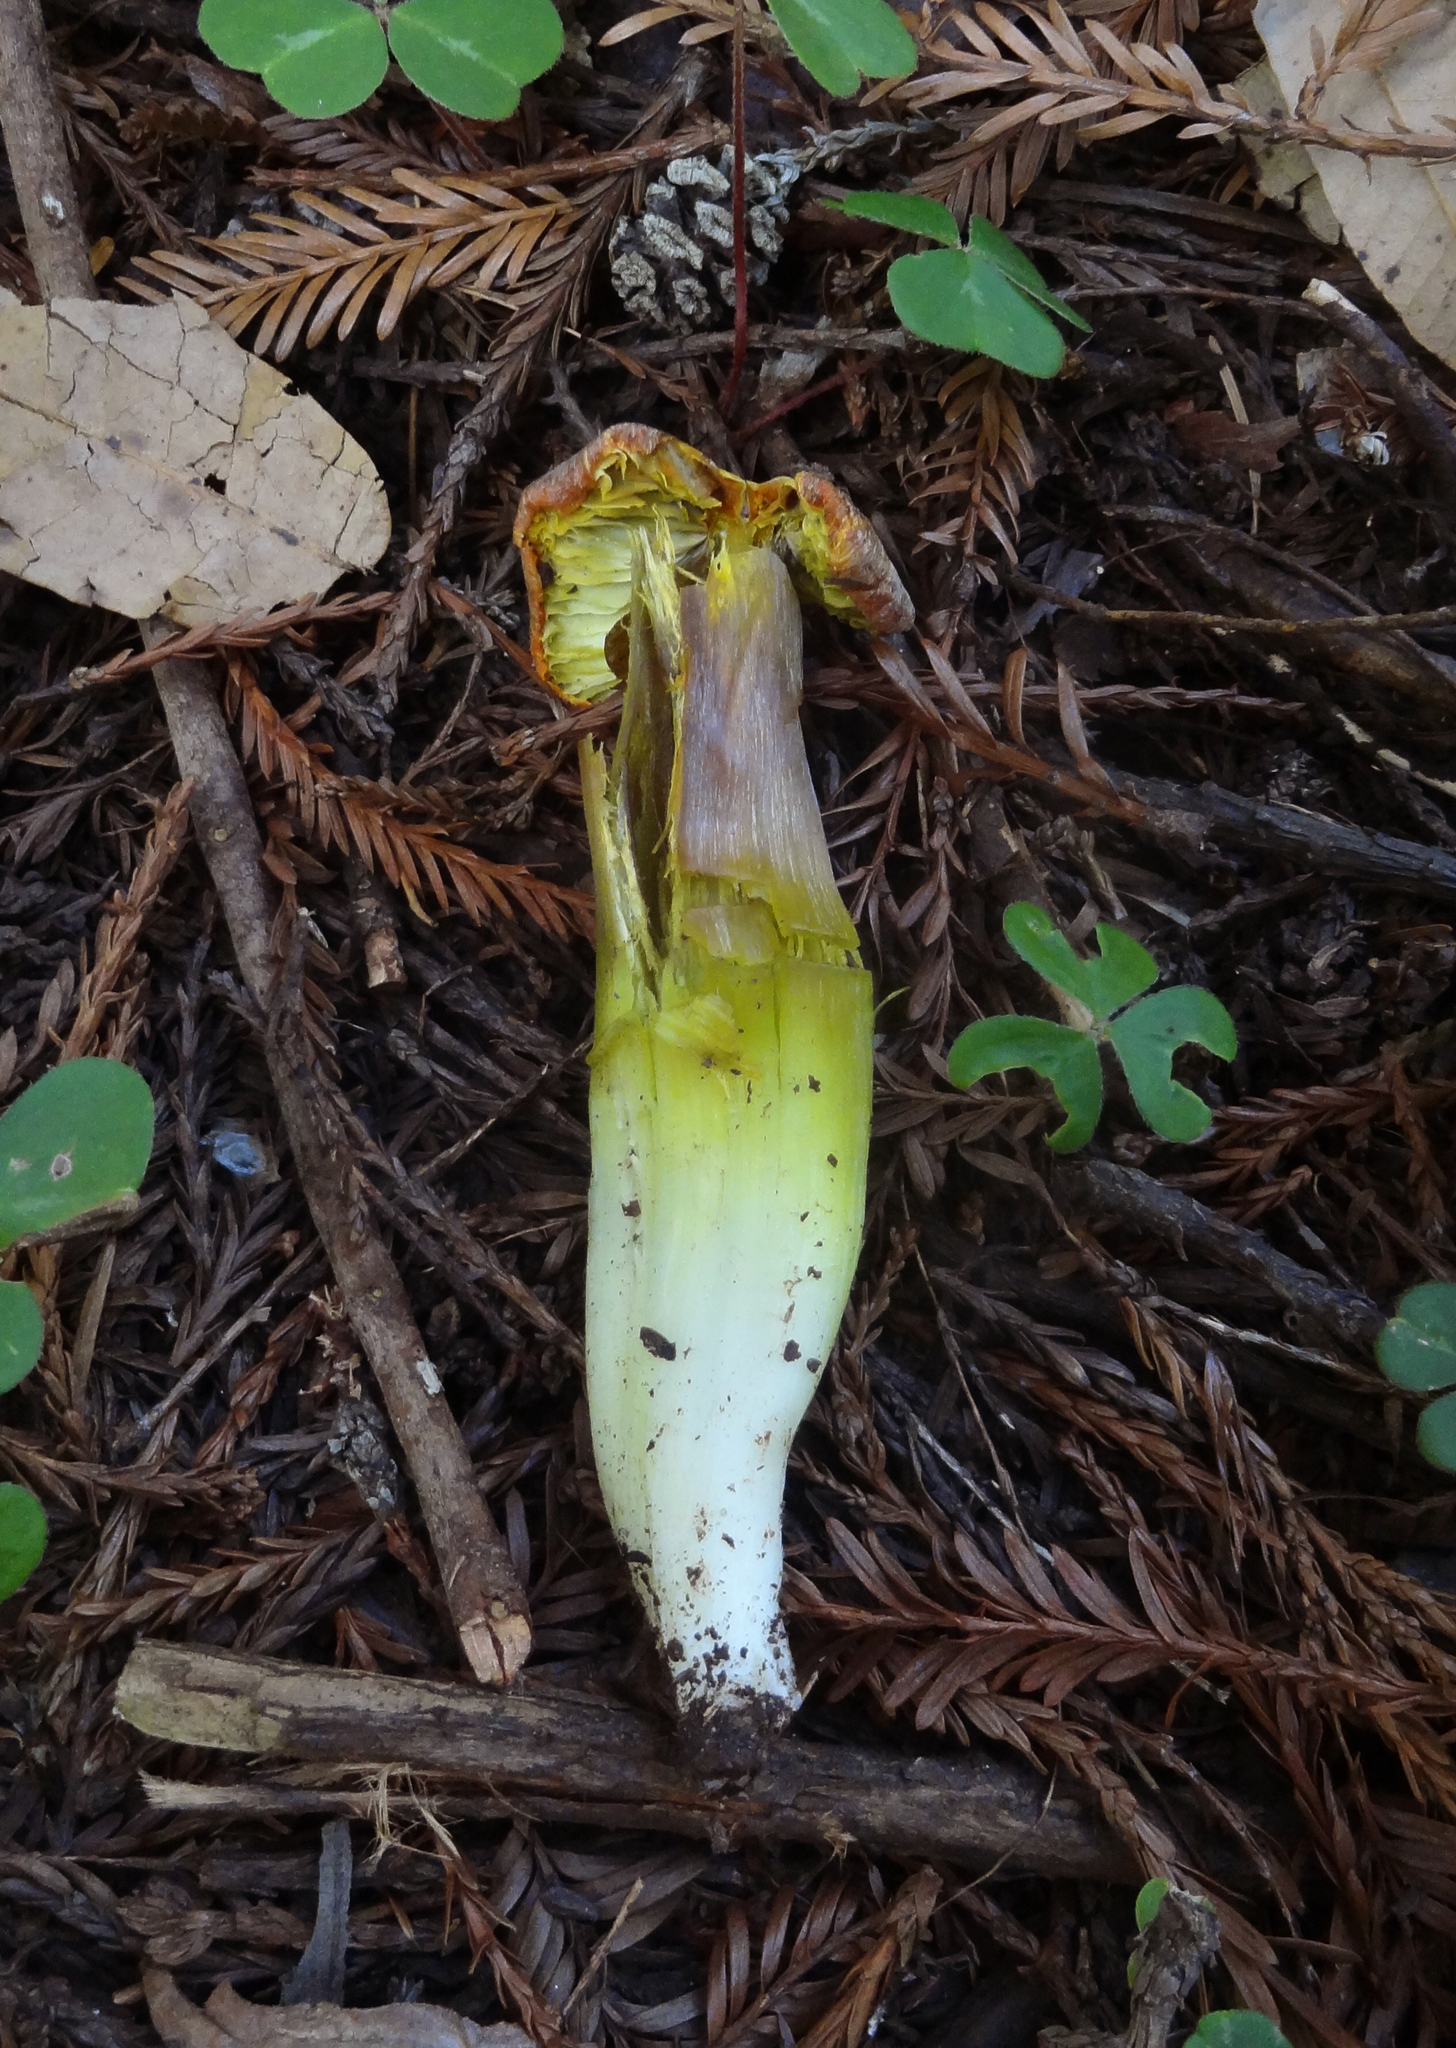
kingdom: Fungi
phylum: Basidiomycota
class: Agaricomycetes
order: Agaricales
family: Hygrophoraceae
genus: Hygrocybe
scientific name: Hygrocybe virescens
